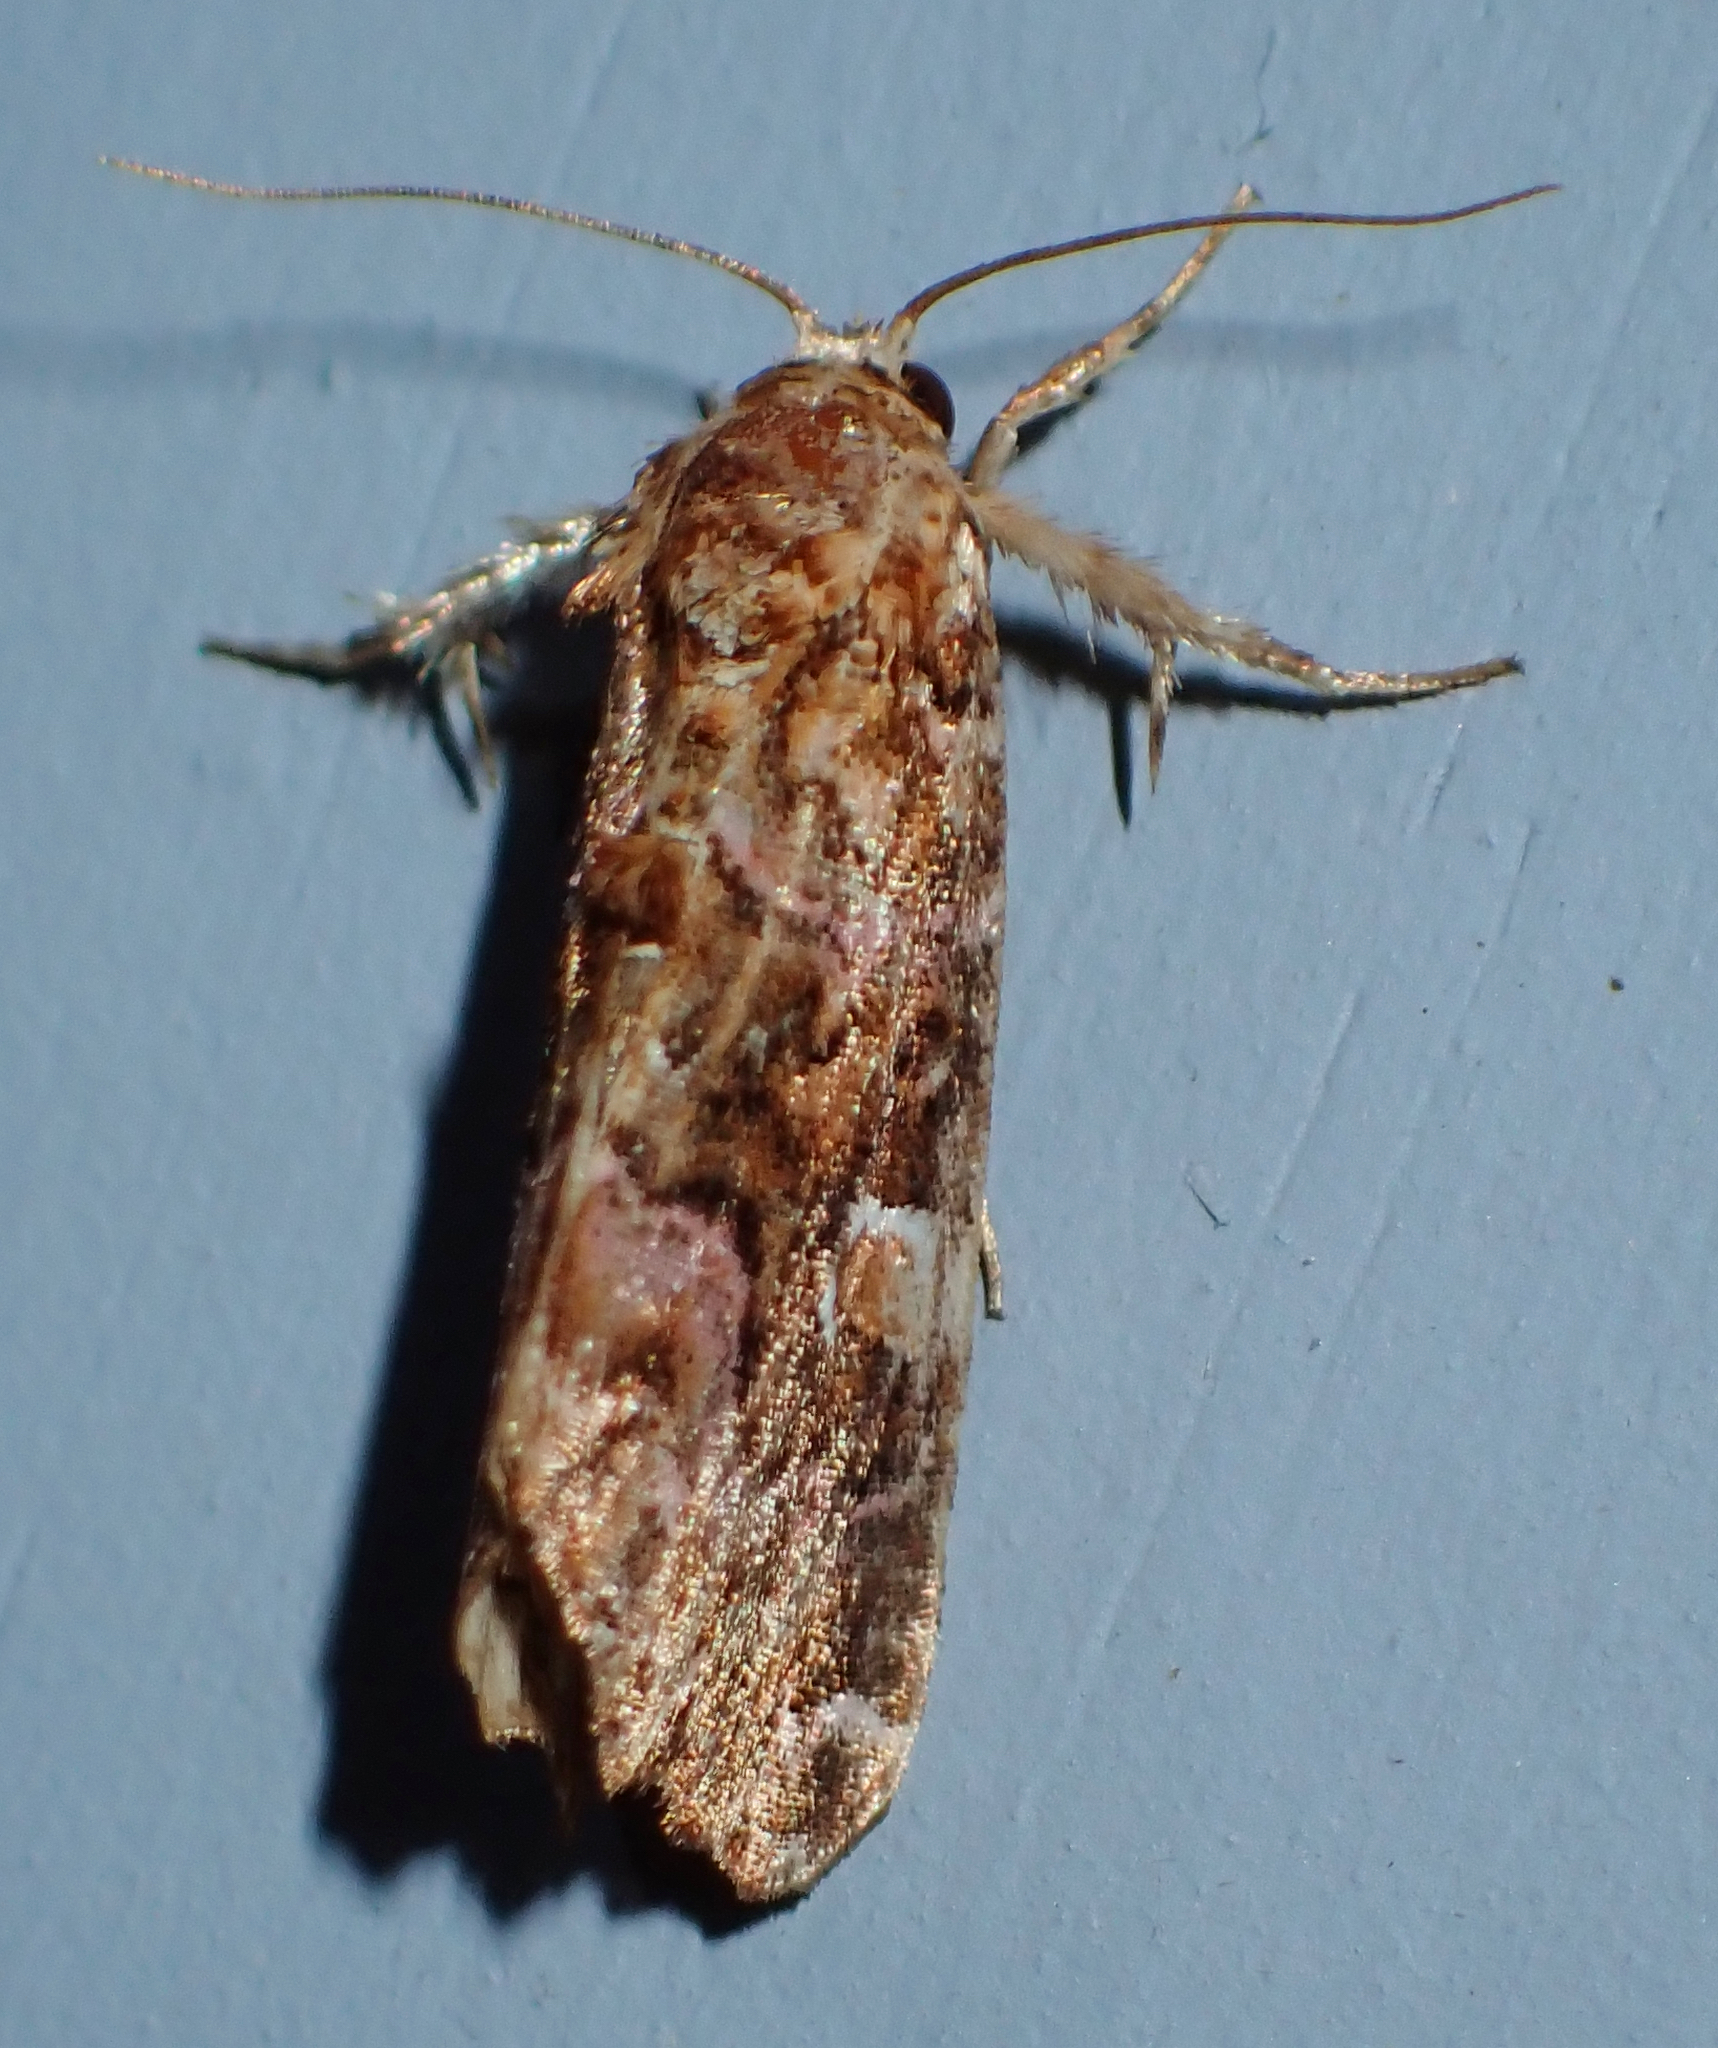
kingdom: Animalia
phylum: Arthropoda
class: Insecta
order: Lepidoptera
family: Noctuidae
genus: Callopistria
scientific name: Callopistria mollissima
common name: Pink-shaded fern moth
